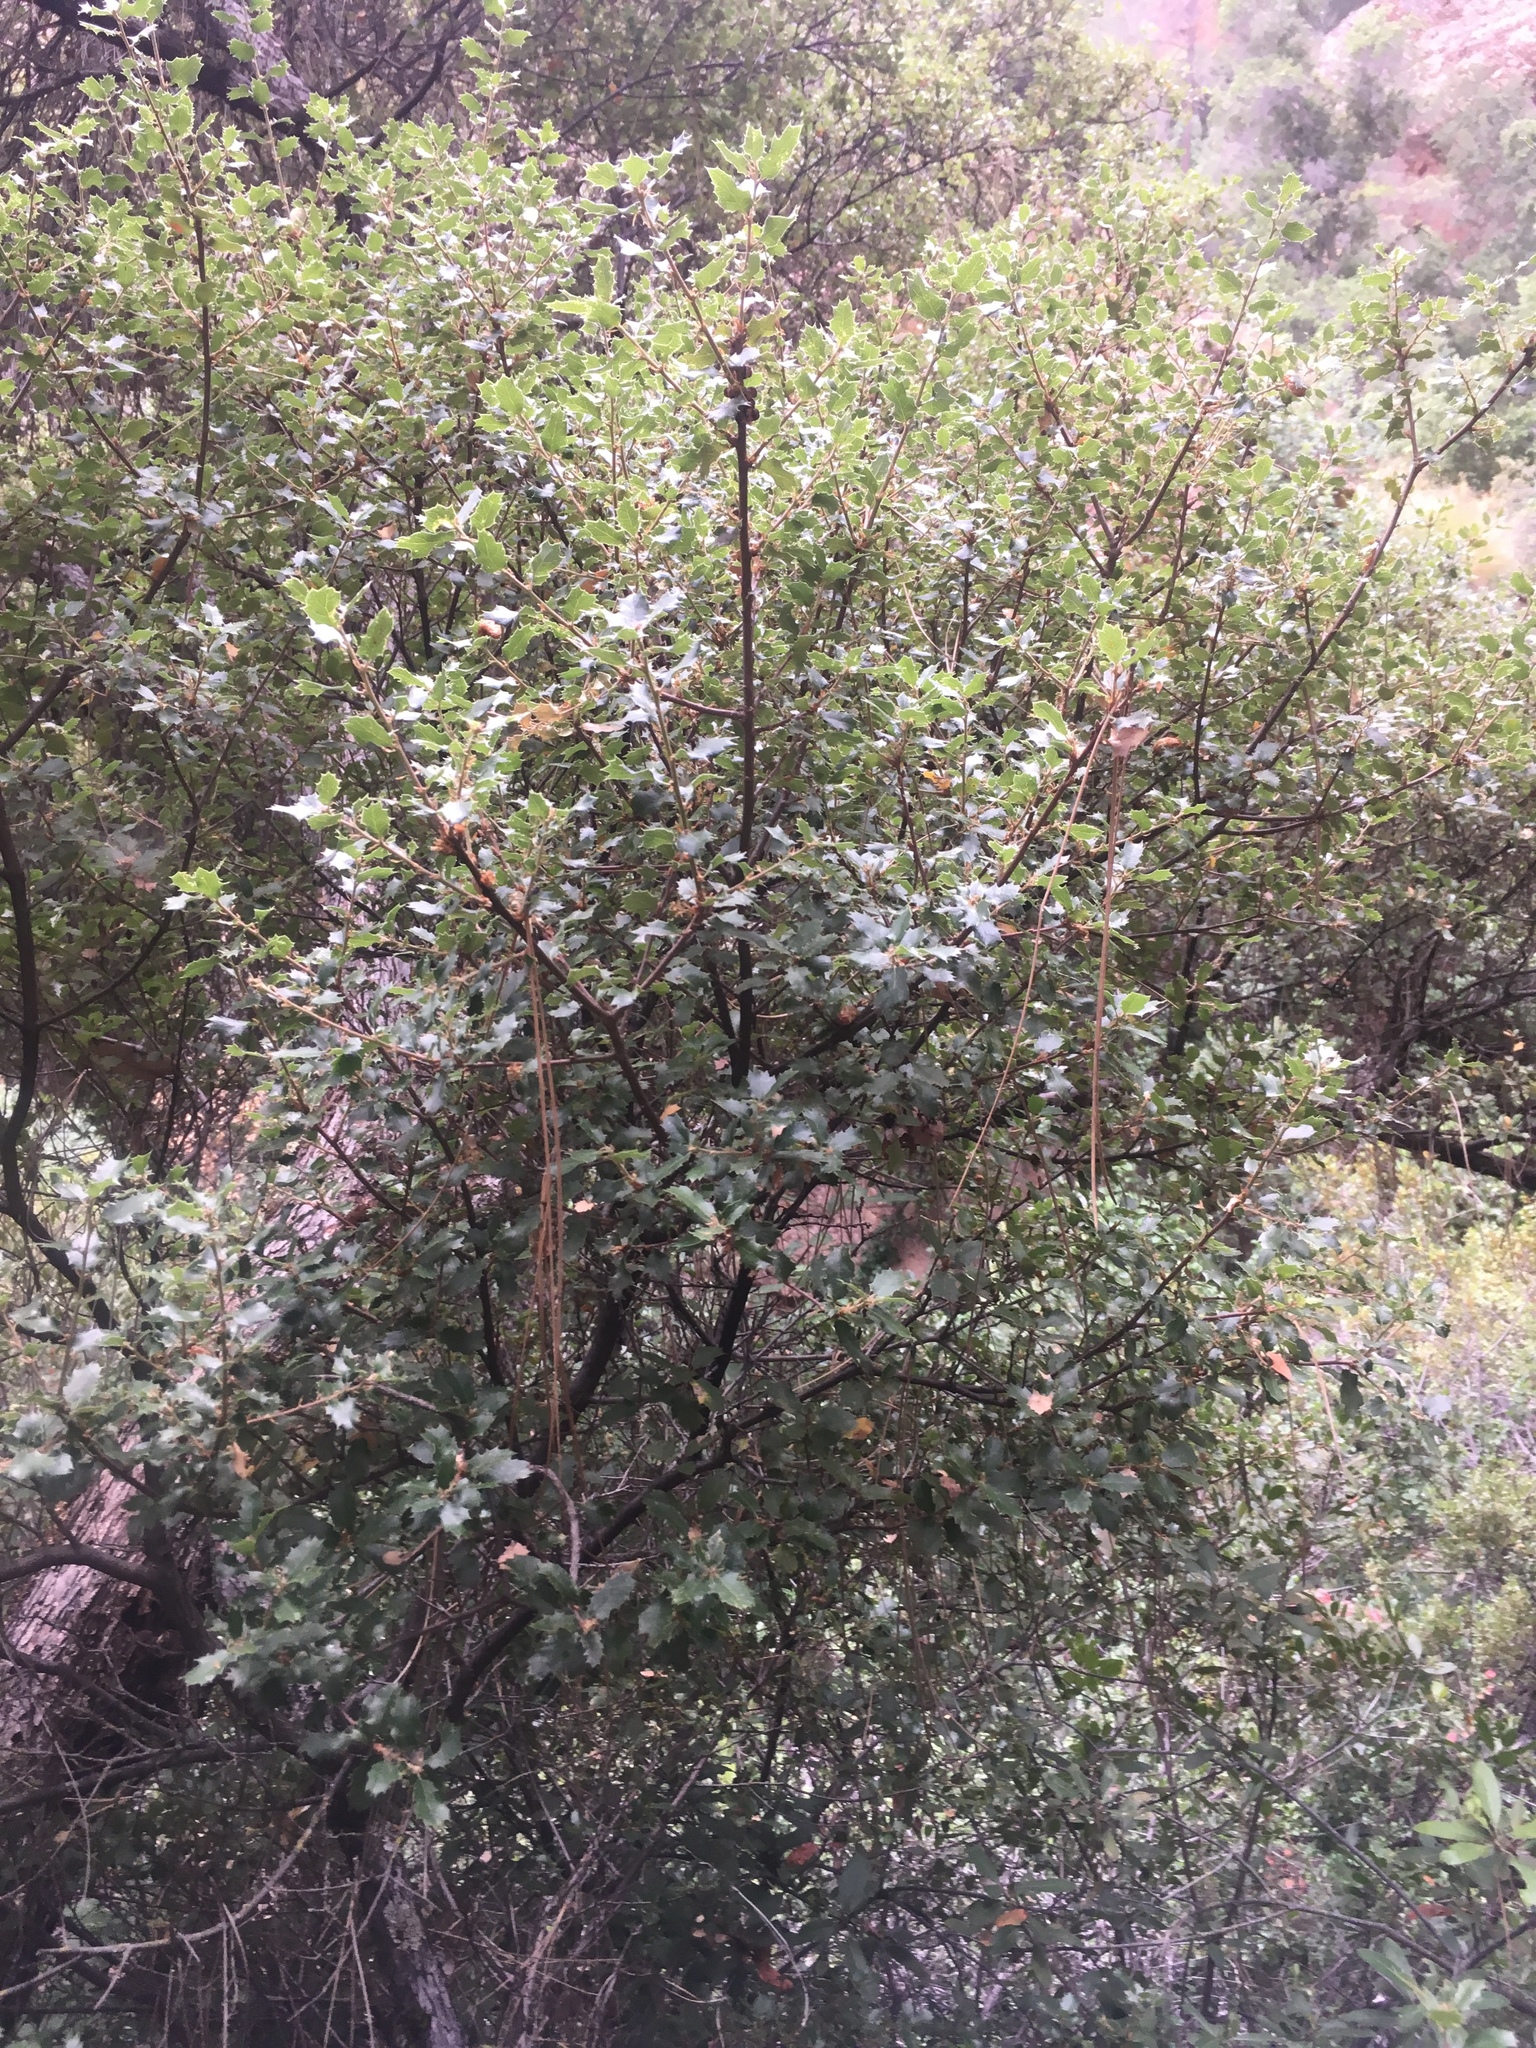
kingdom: Plantae
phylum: Tracheophyta
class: Magnoliopsida
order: Fagales
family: Fagaceae
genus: Quercus
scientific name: Quercus berberidifolia
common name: California scrub oak
